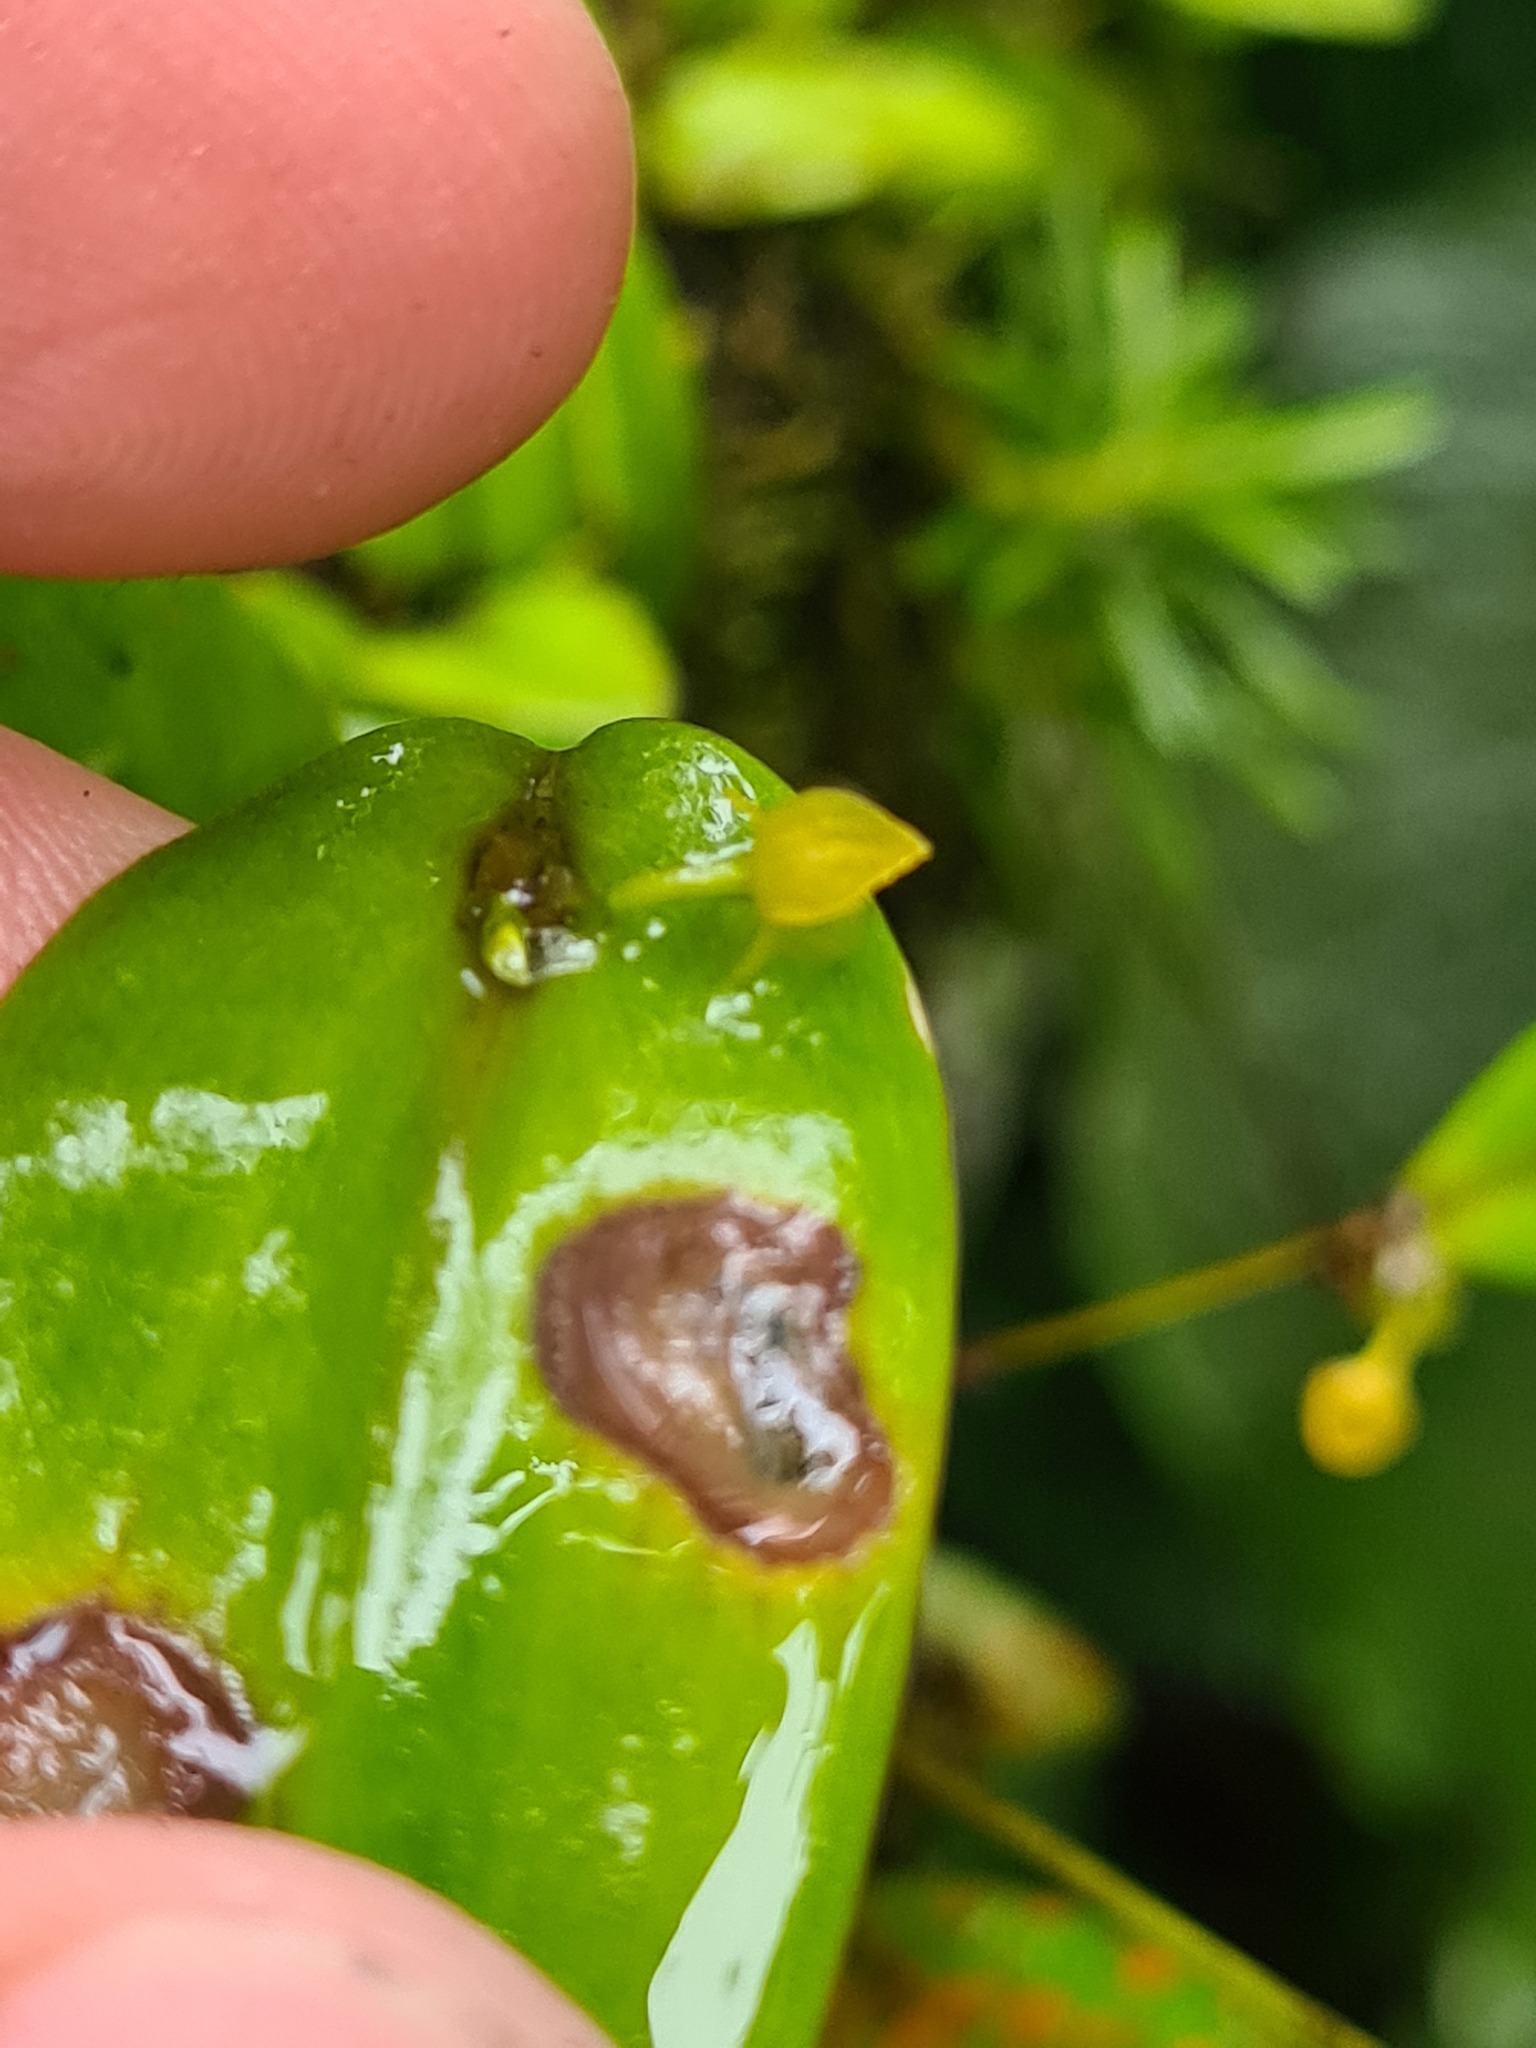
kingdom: Plantae
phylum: Tracheophyta
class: Liliopsida
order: Asparagales
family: Orchidaceae
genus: Pleurothallis
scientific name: Pleurothallis dibolia
